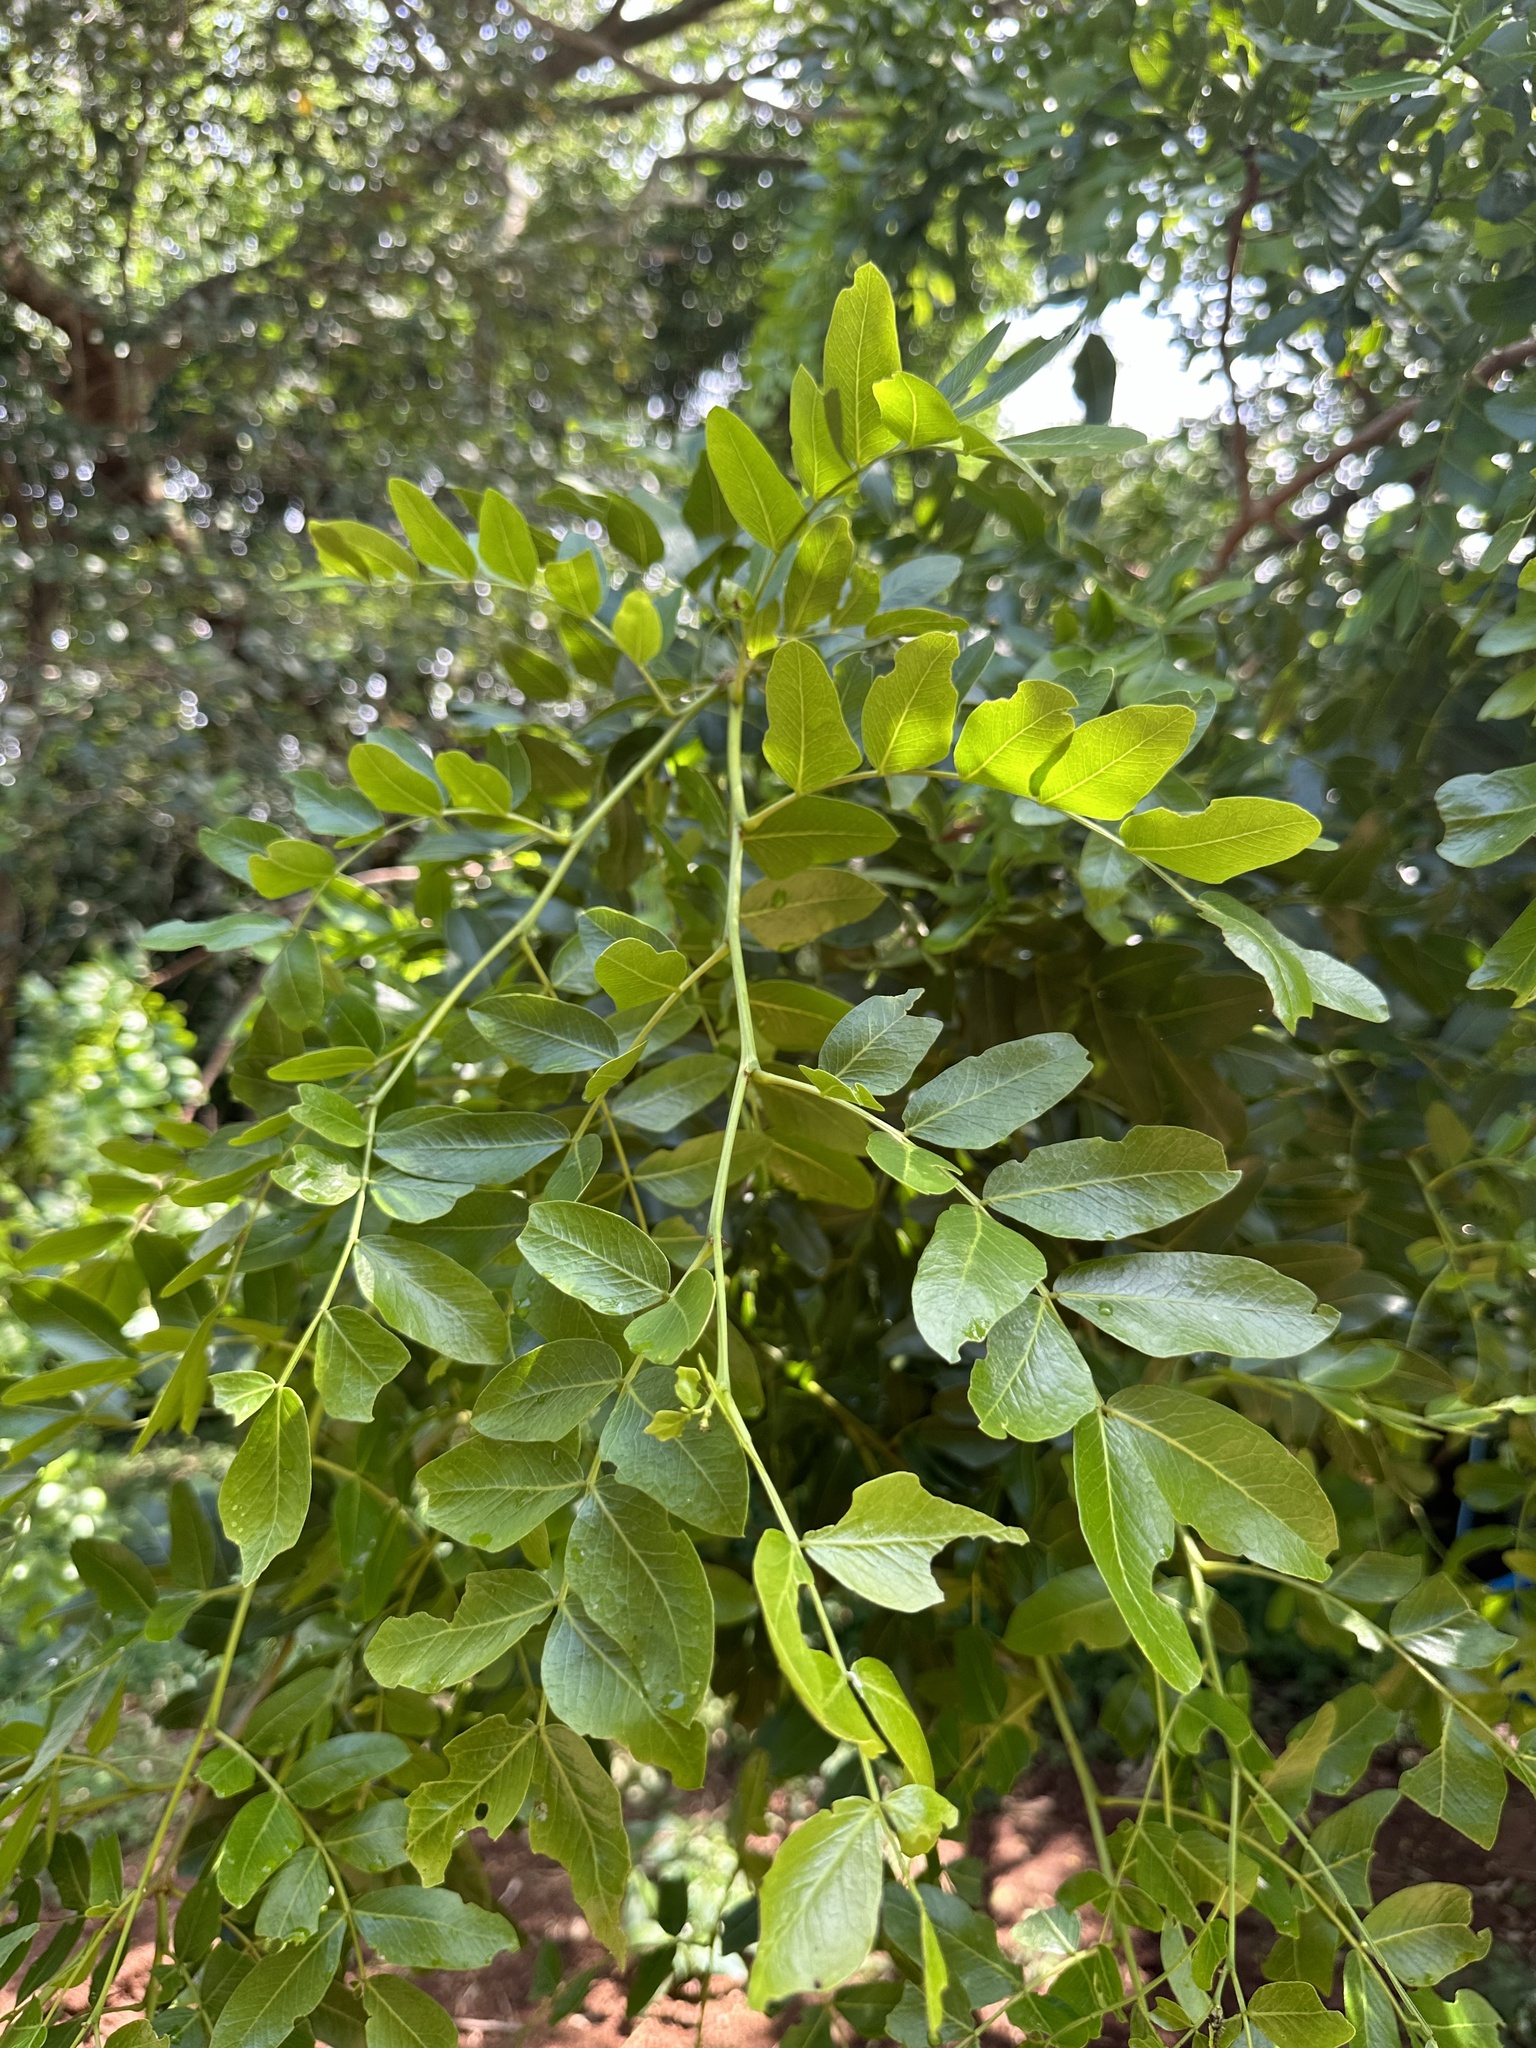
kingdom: Plantae
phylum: Tracheophyta
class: Magnoliopsida
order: Fabales
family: Fabaceae
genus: Schotia
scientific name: Schotia brachypetala
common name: Weeping boer-bean
